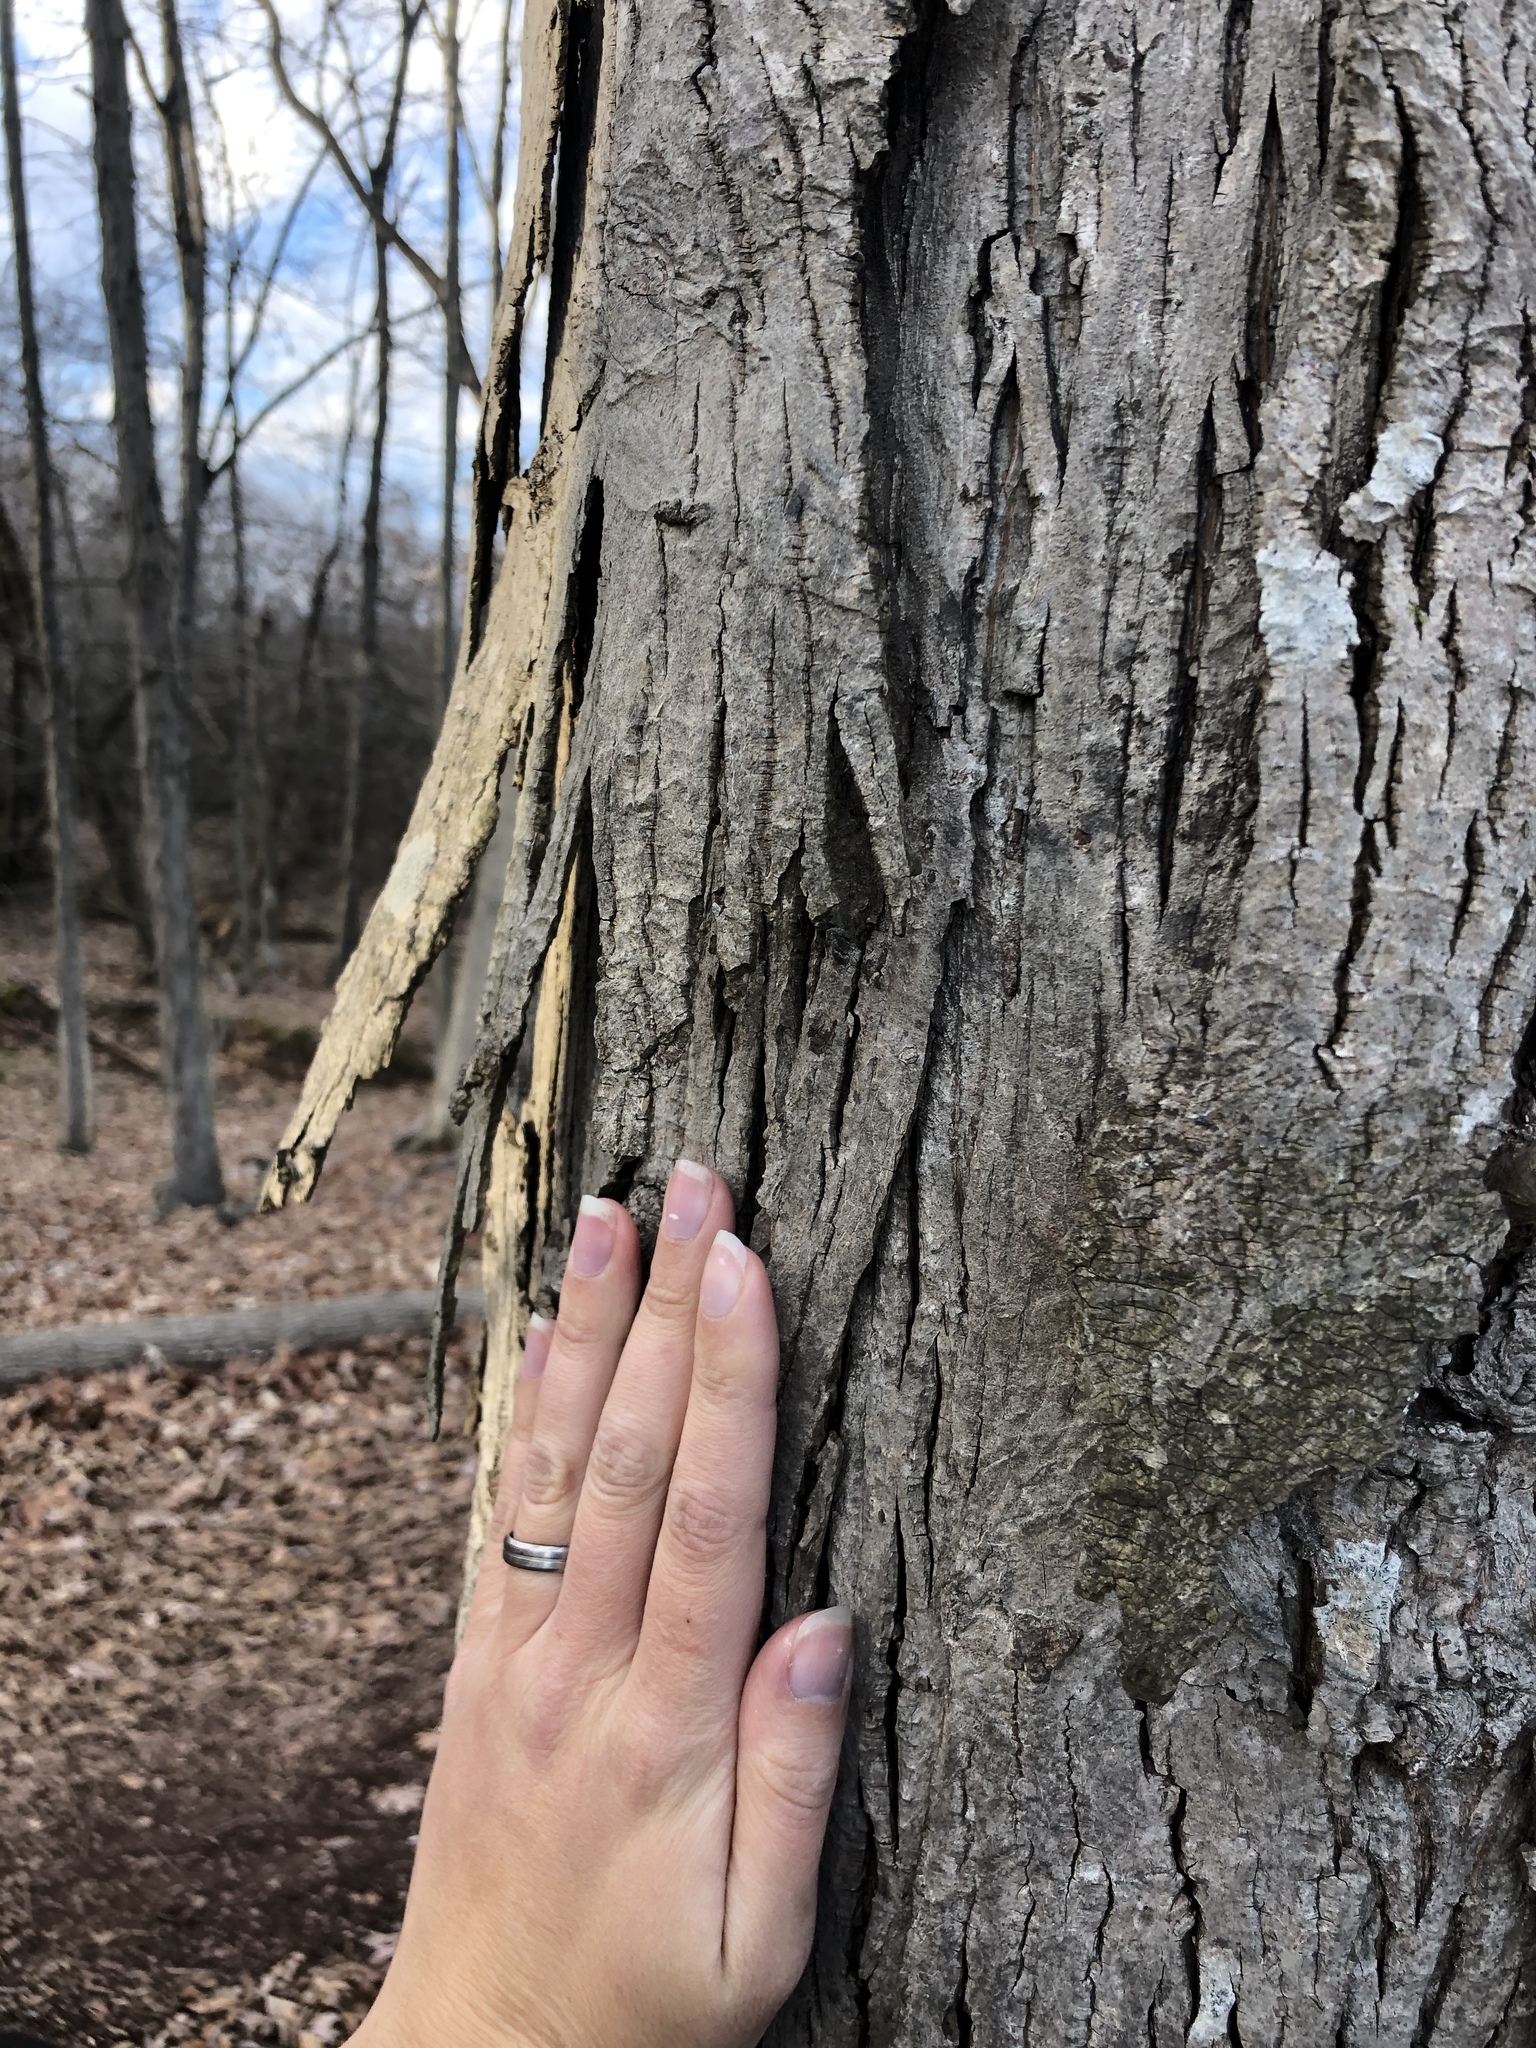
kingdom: Plantae
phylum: Tracheophyta
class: Magnoliopsida
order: Fagales
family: Juglandaceae
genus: Carya
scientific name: Carya ovata
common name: Shagbark hickory
